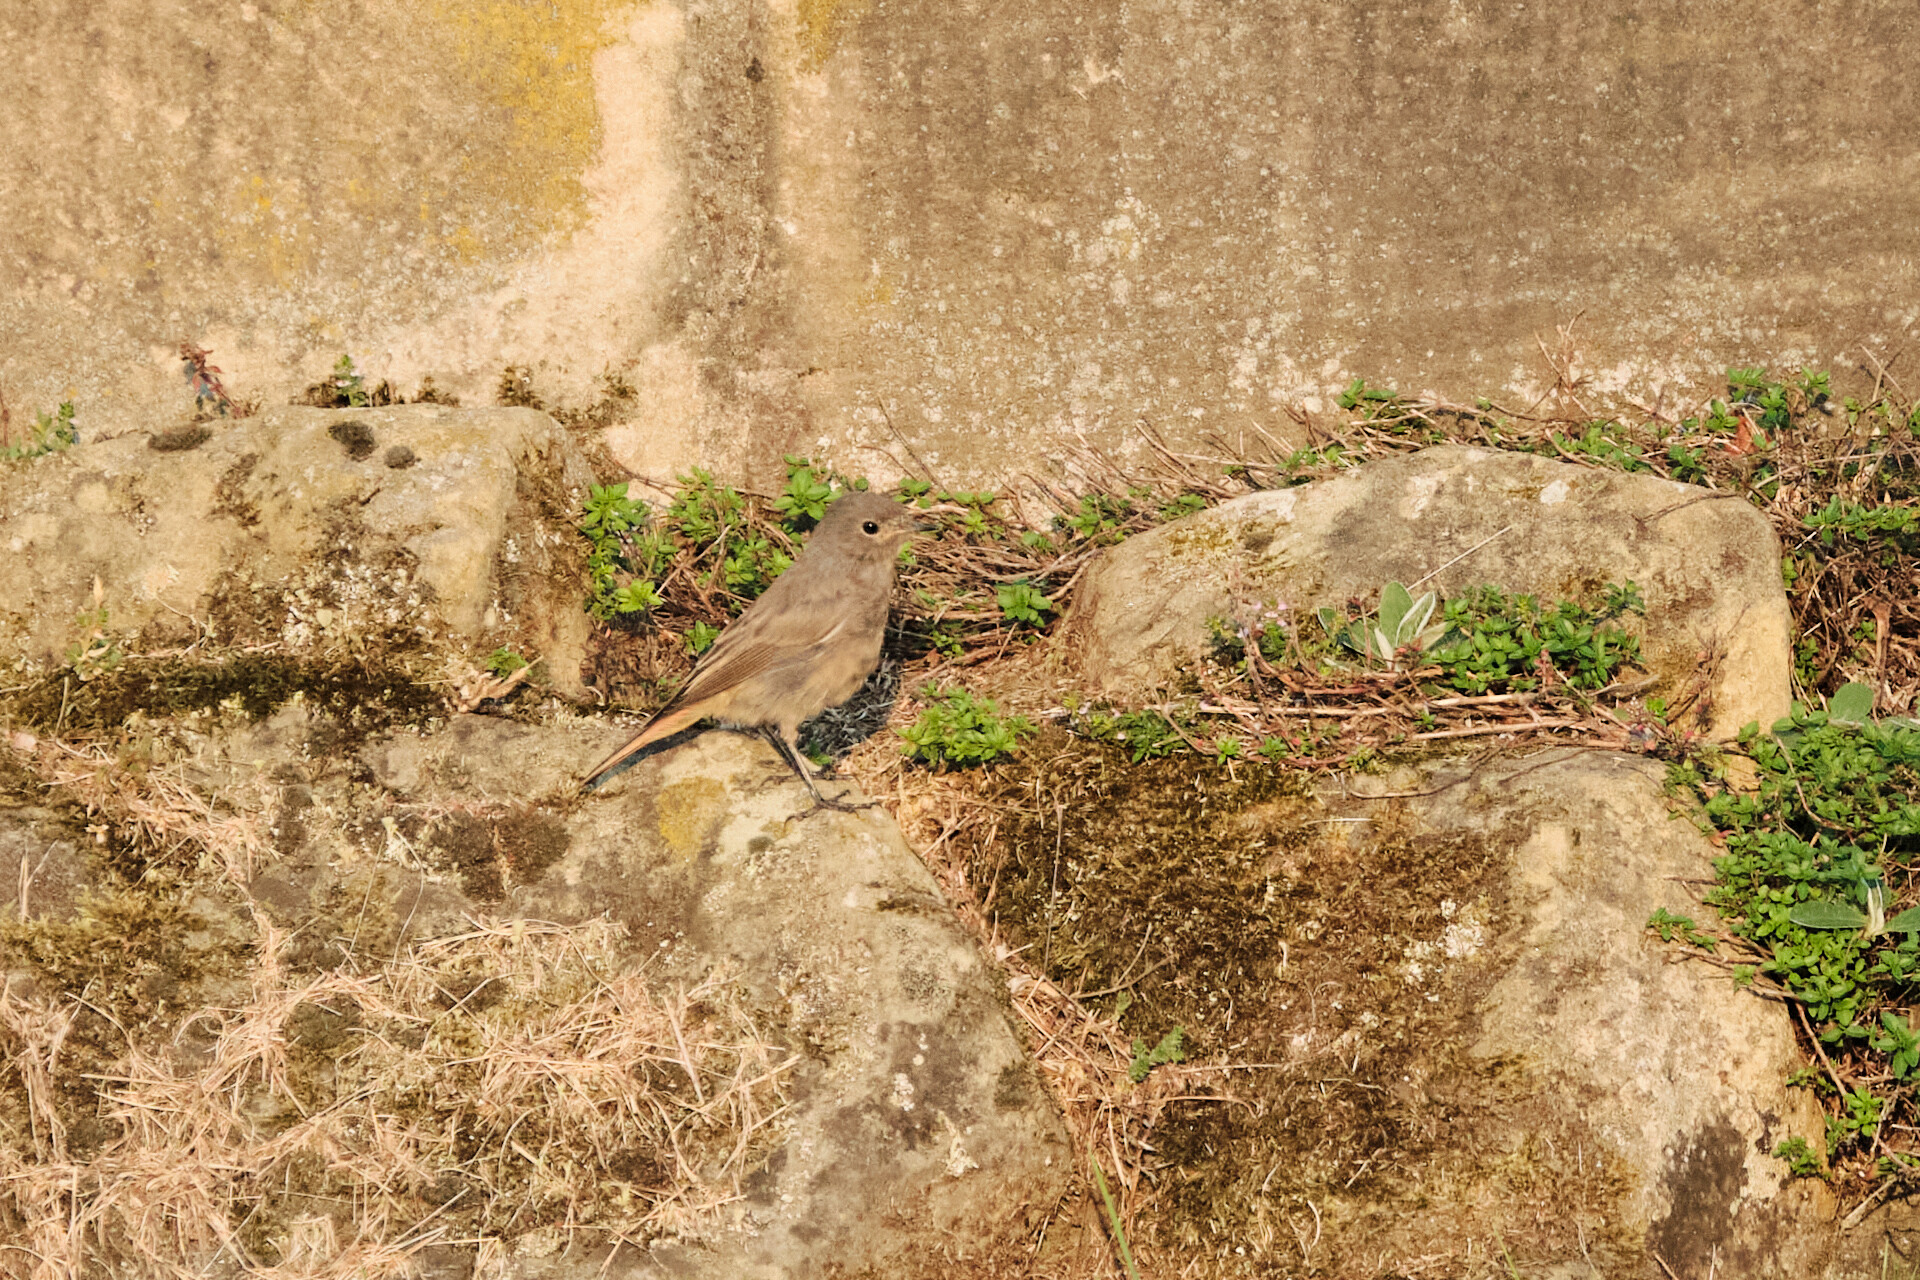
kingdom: Animalia
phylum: Chordata
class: Aves
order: Passeriformes
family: Muscicapidae
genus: Phoenicurus
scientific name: Phoenicurus ochruros
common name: Black redstart
